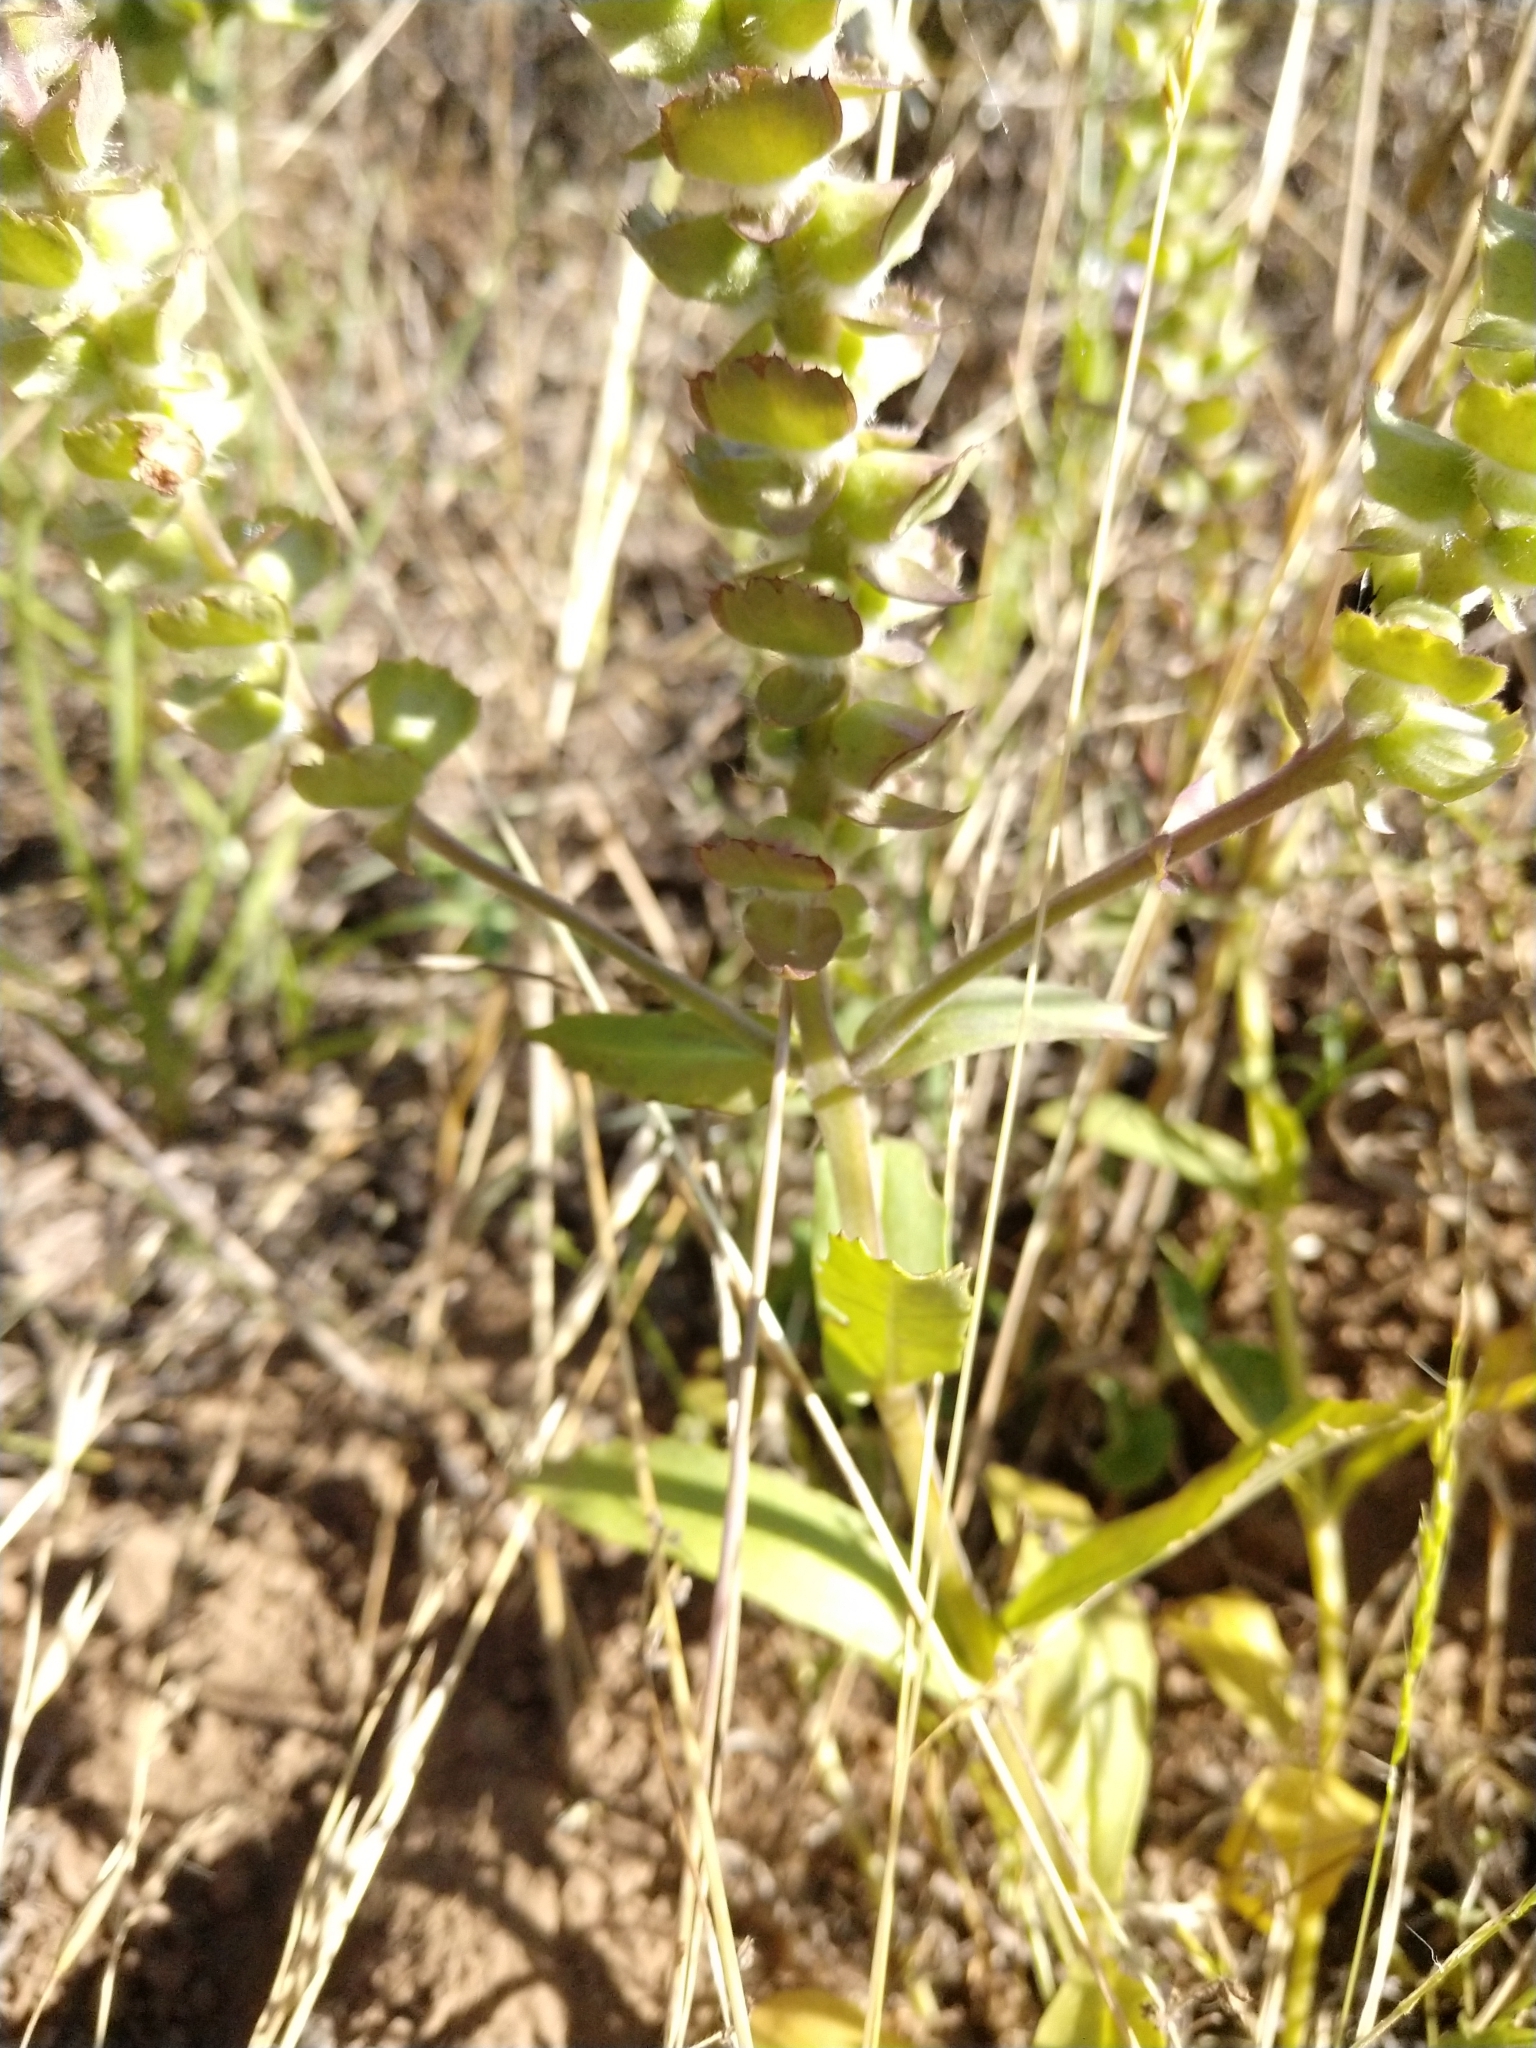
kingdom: Plantae
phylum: Tracheophyta
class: Magnoliopsida
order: Lamiales
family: Lamiaceae
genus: Brazoria
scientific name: Brazoria truncata
